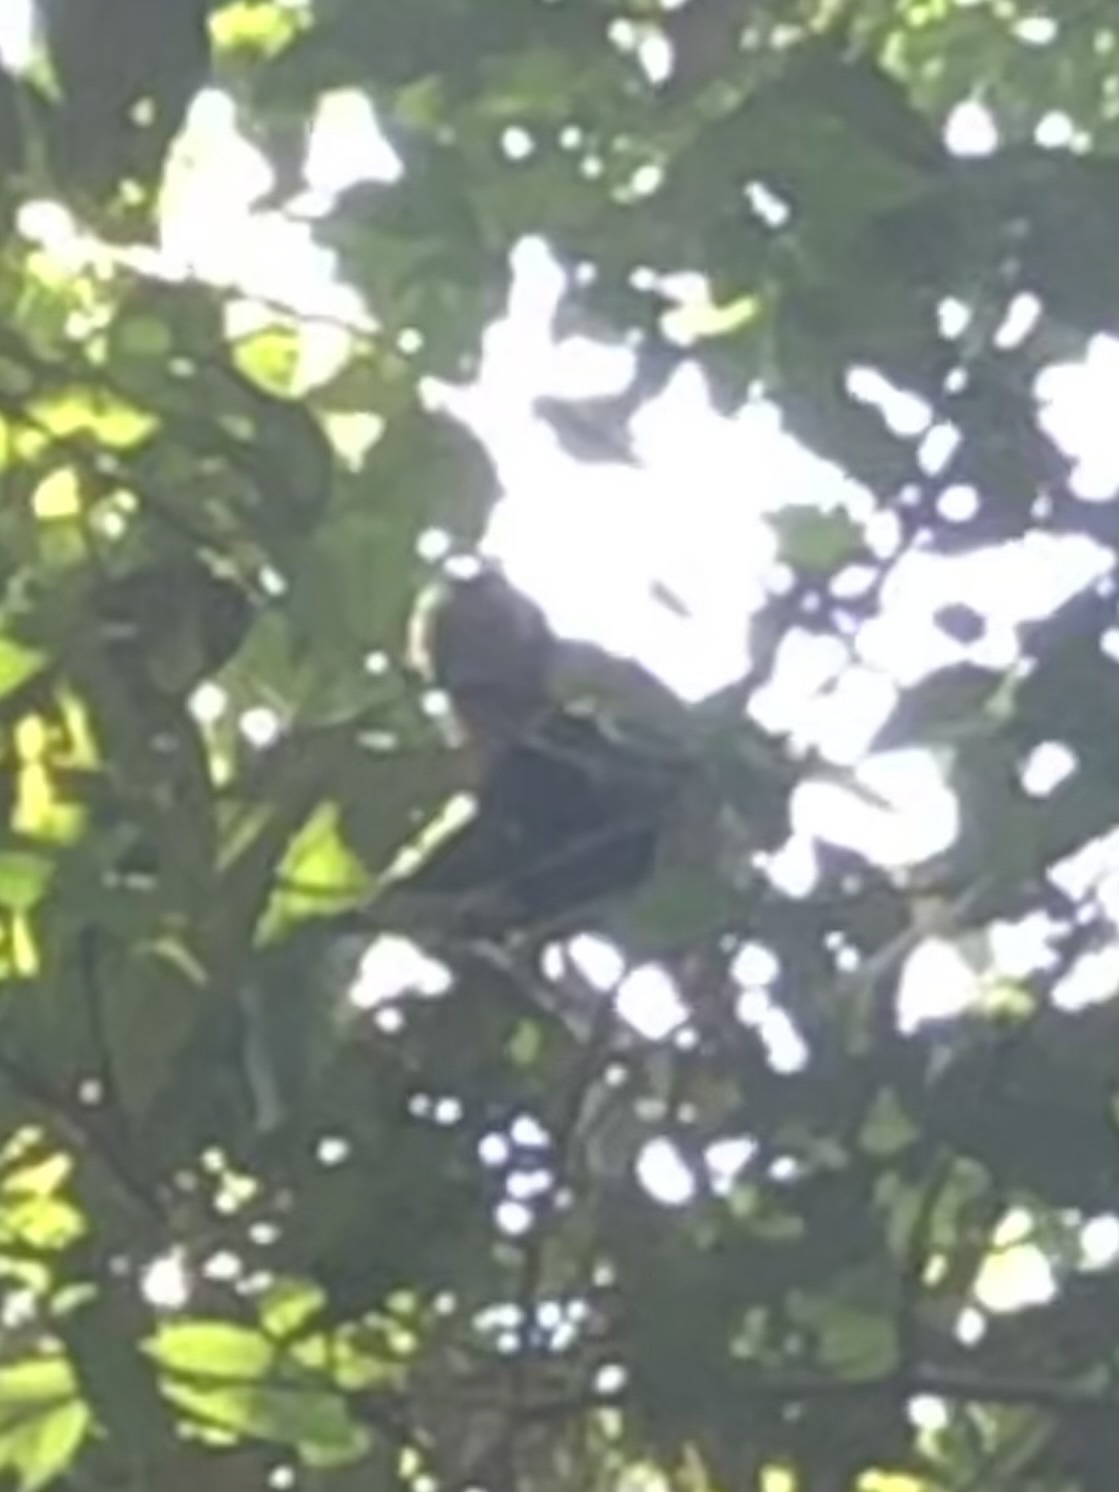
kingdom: Animalia
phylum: Chordata
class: Mammalia
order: Primates
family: Cebidae
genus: Sapajus
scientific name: Sapajus apella
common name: Tufted capuchin
